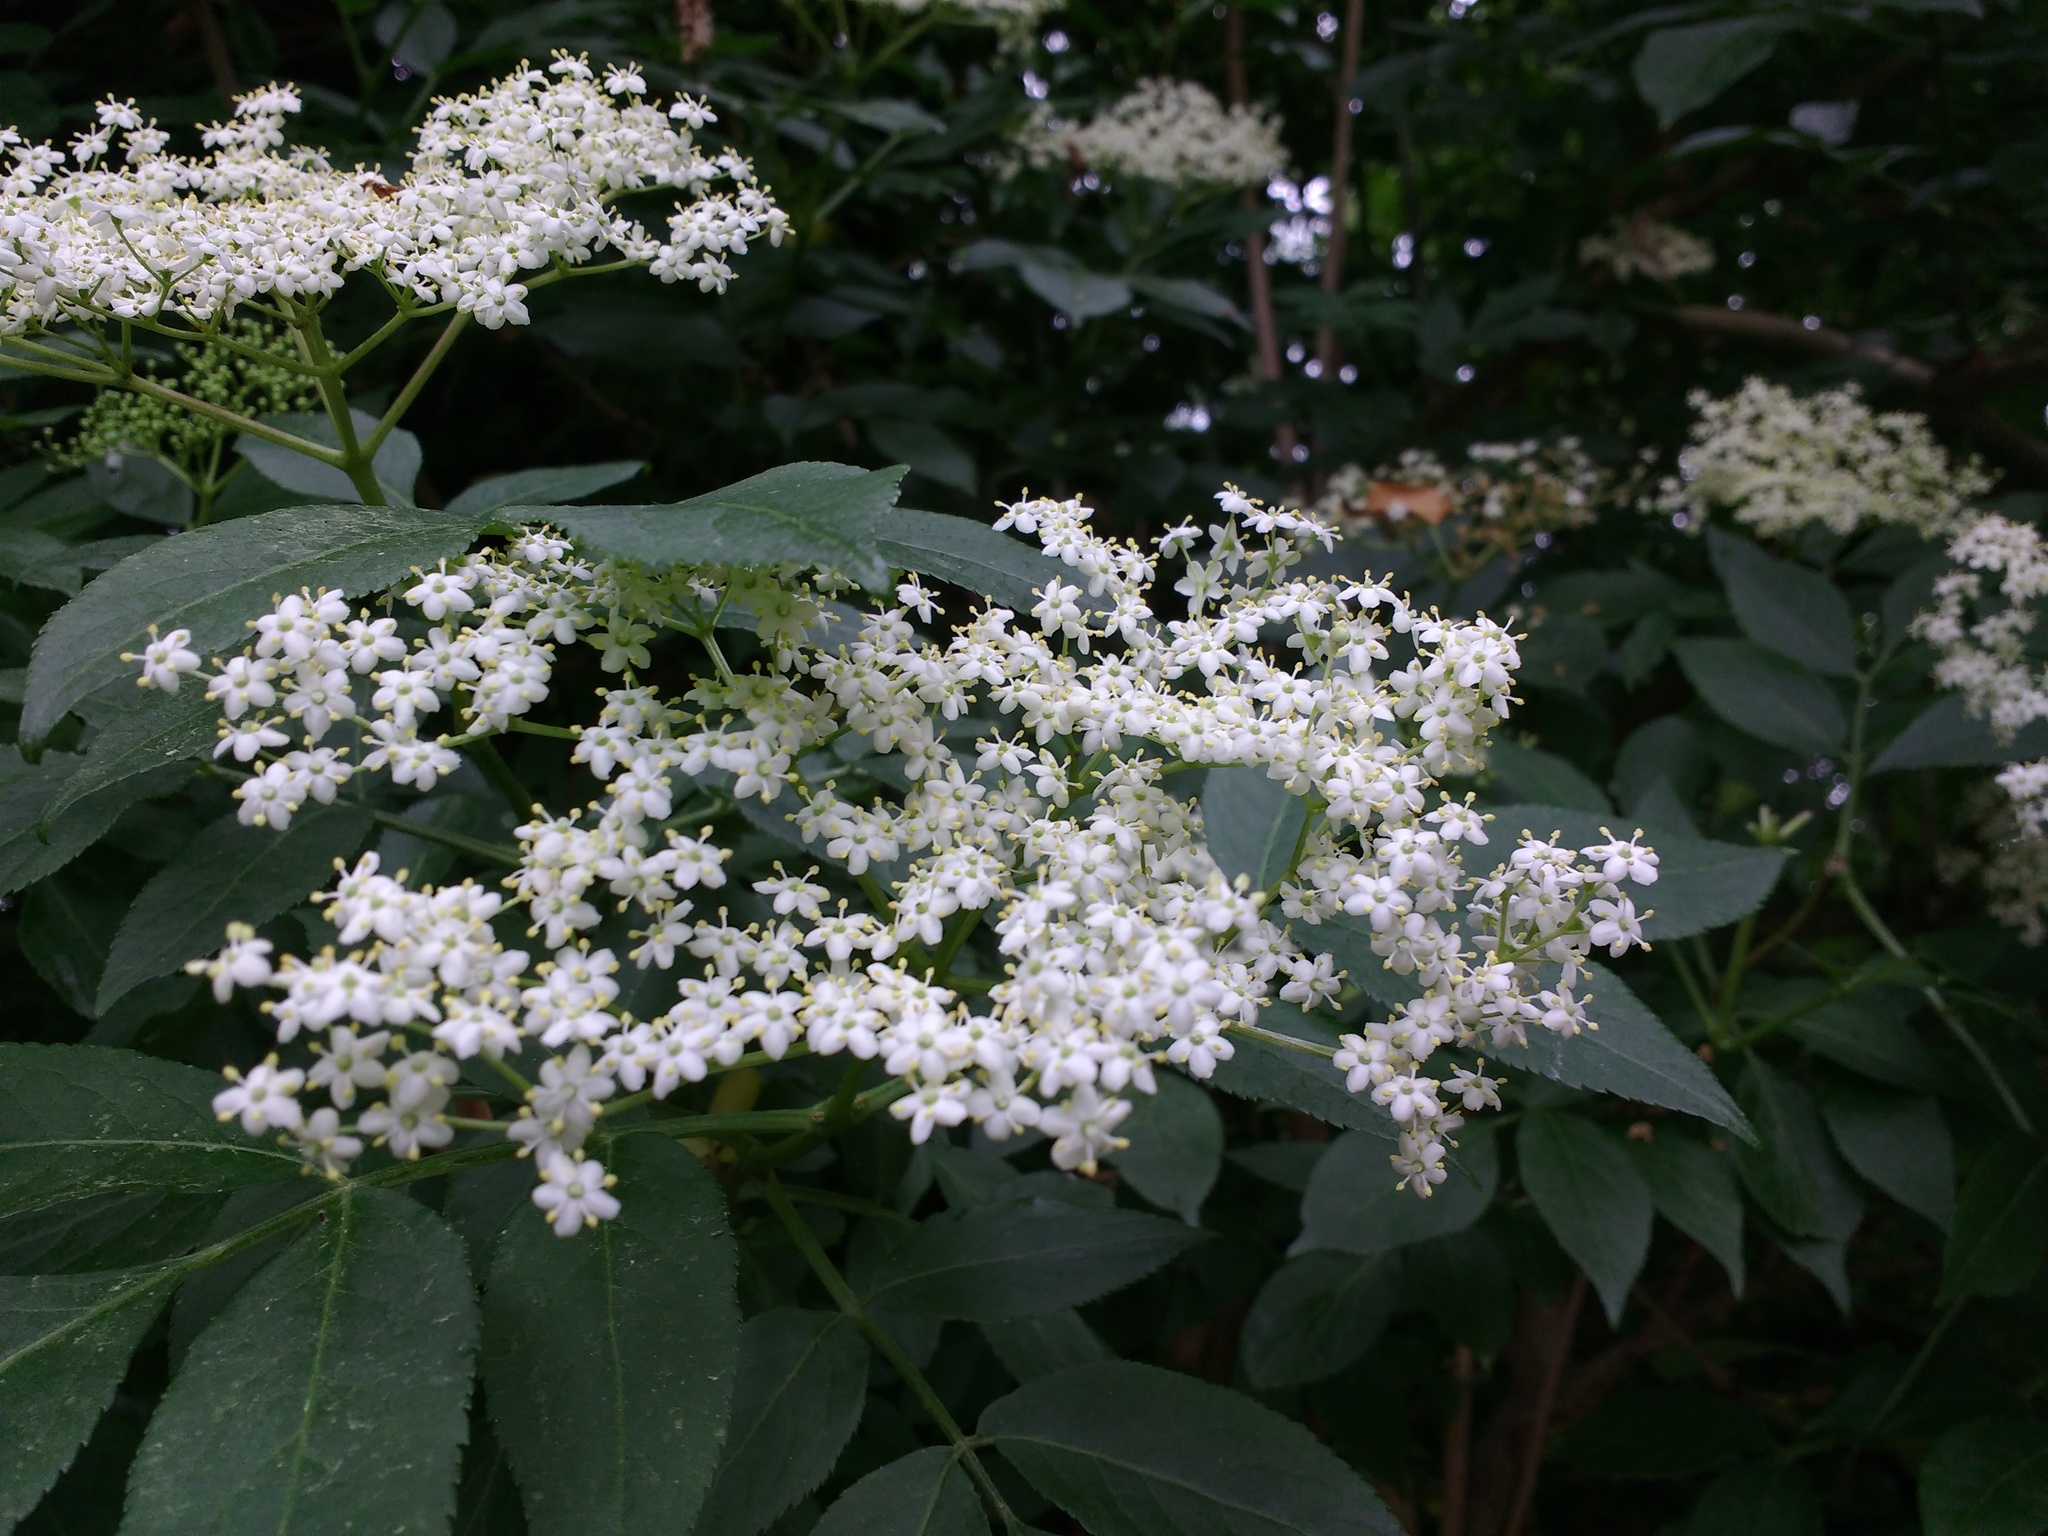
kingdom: Plantae
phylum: Tracheophyta
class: Magnoliopsida
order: Dipsacales
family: Viburnaceae
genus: Sambucus
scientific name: Sambucus nigra
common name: Elder
